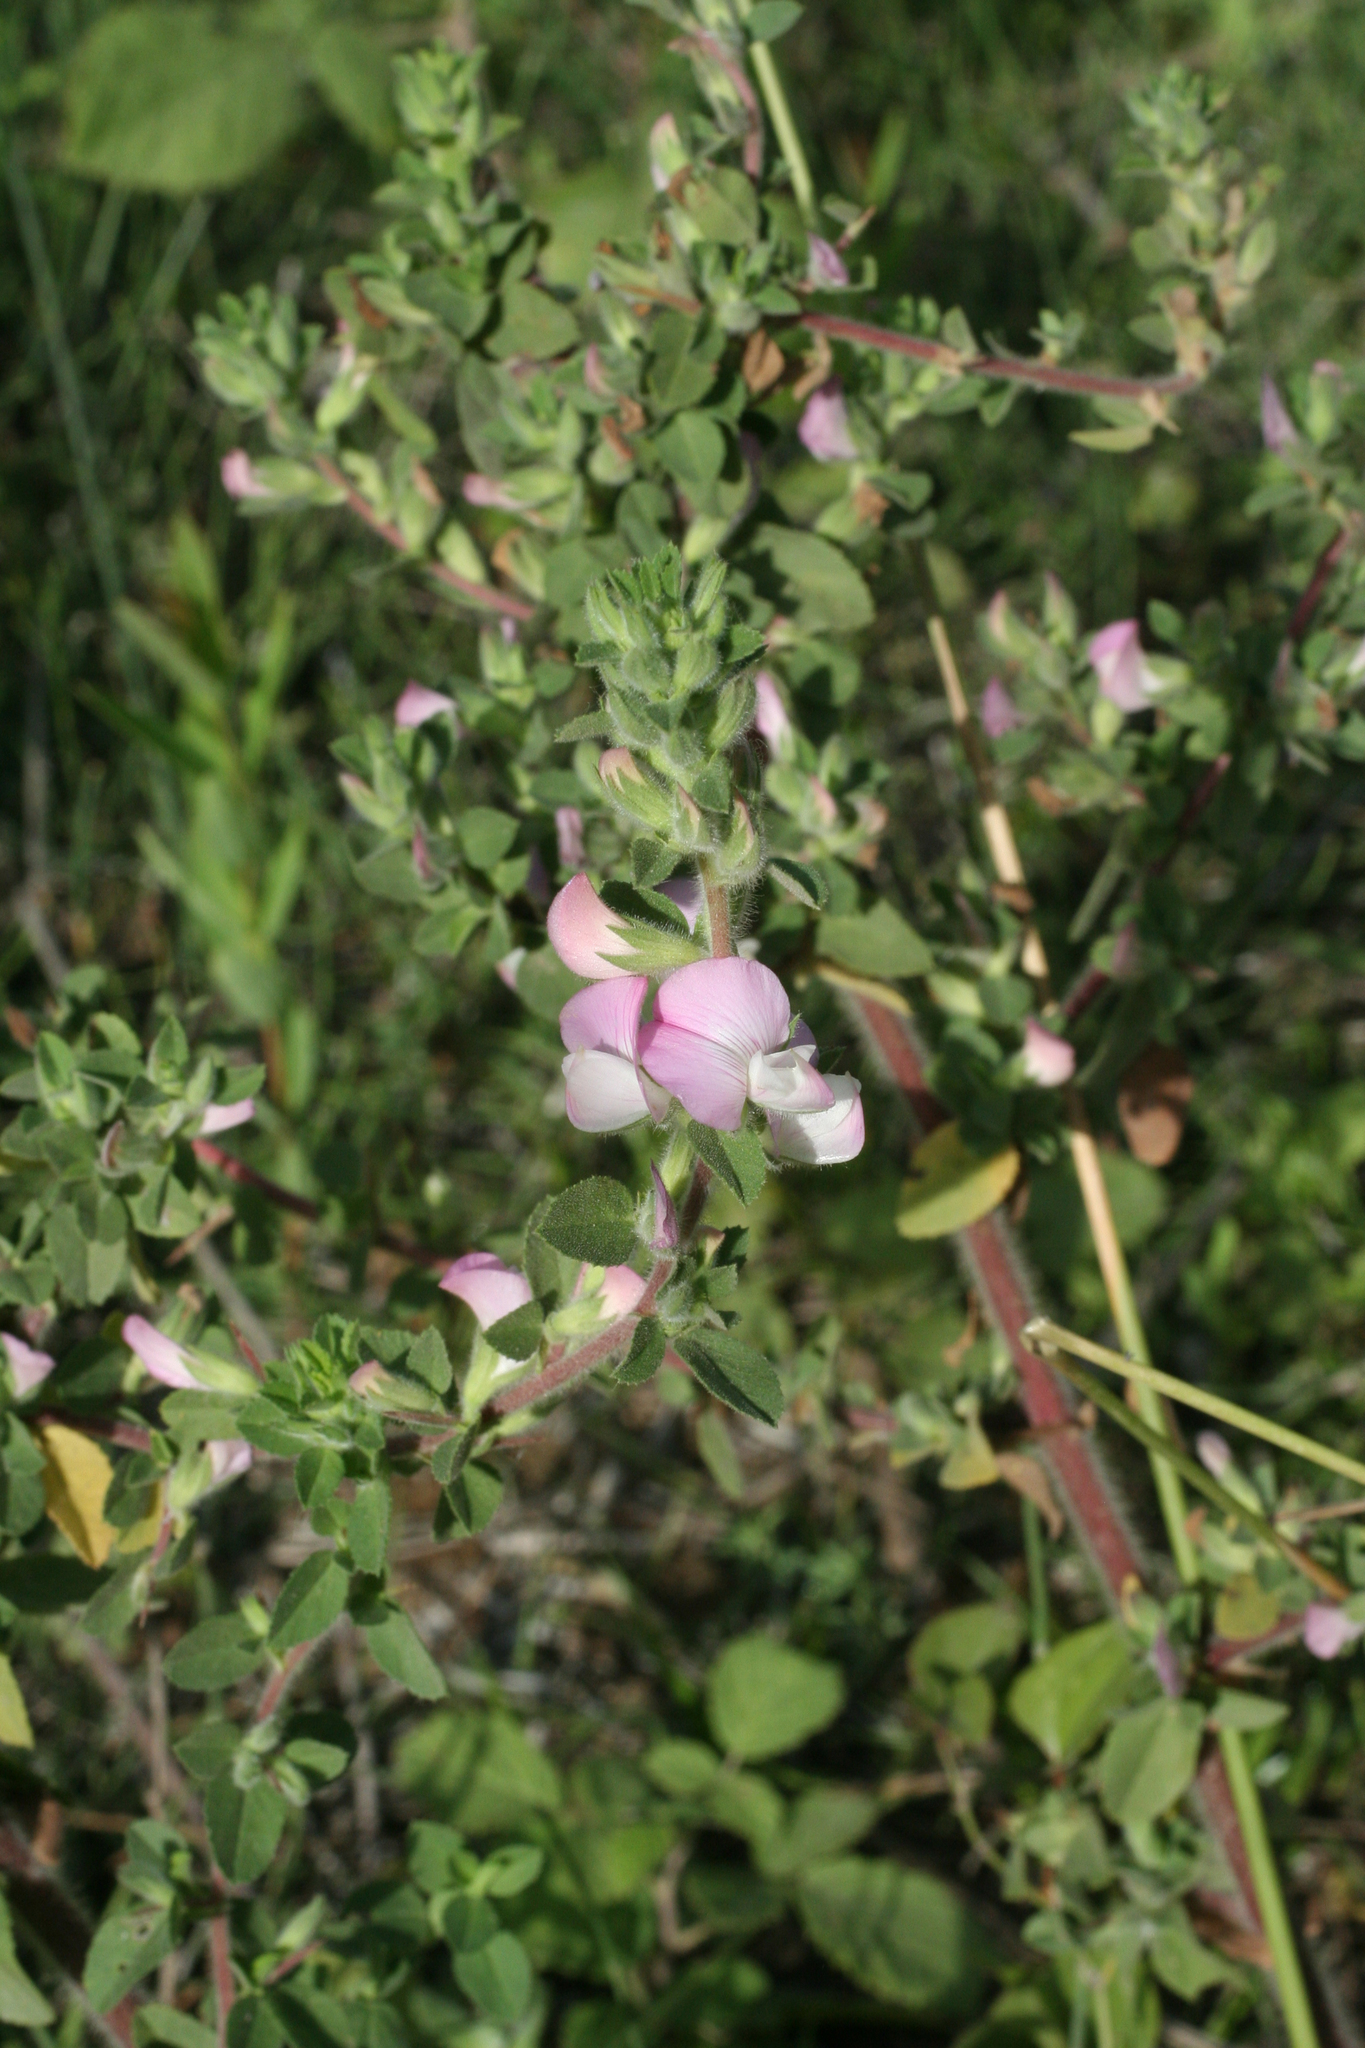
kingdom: Plantae
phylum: Tracheophyta
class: Magnoliopsida
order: Fabales
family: Fabaceae
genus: Ononis
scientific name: Ononis arvensis
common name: Field restharrow
